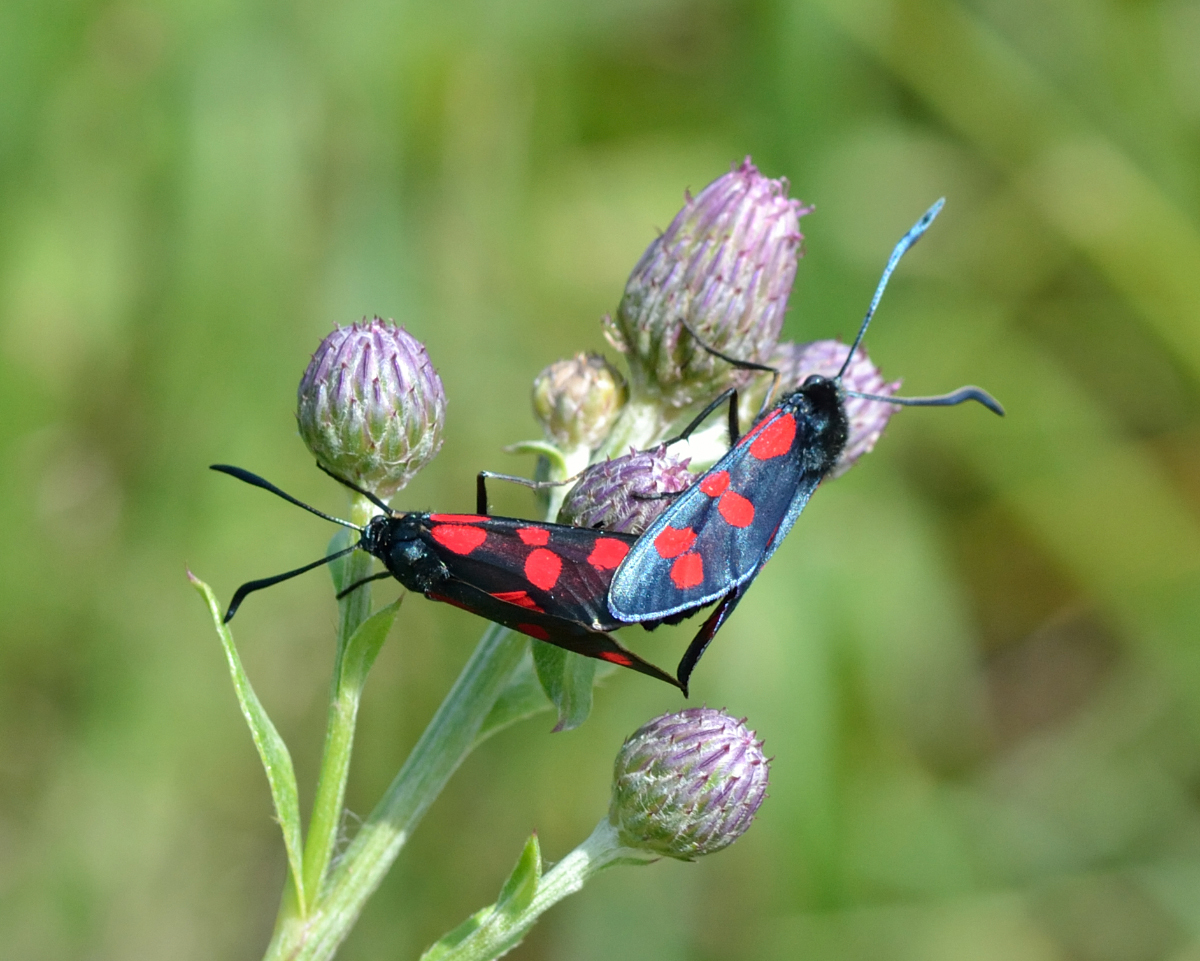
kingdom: Animalia
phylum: Arthropoda
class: Insecta
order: Lepidoptera
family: Zygaenidae
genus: Zygaena
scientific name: Zygaena filipendulae
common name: Six-spot burnet
